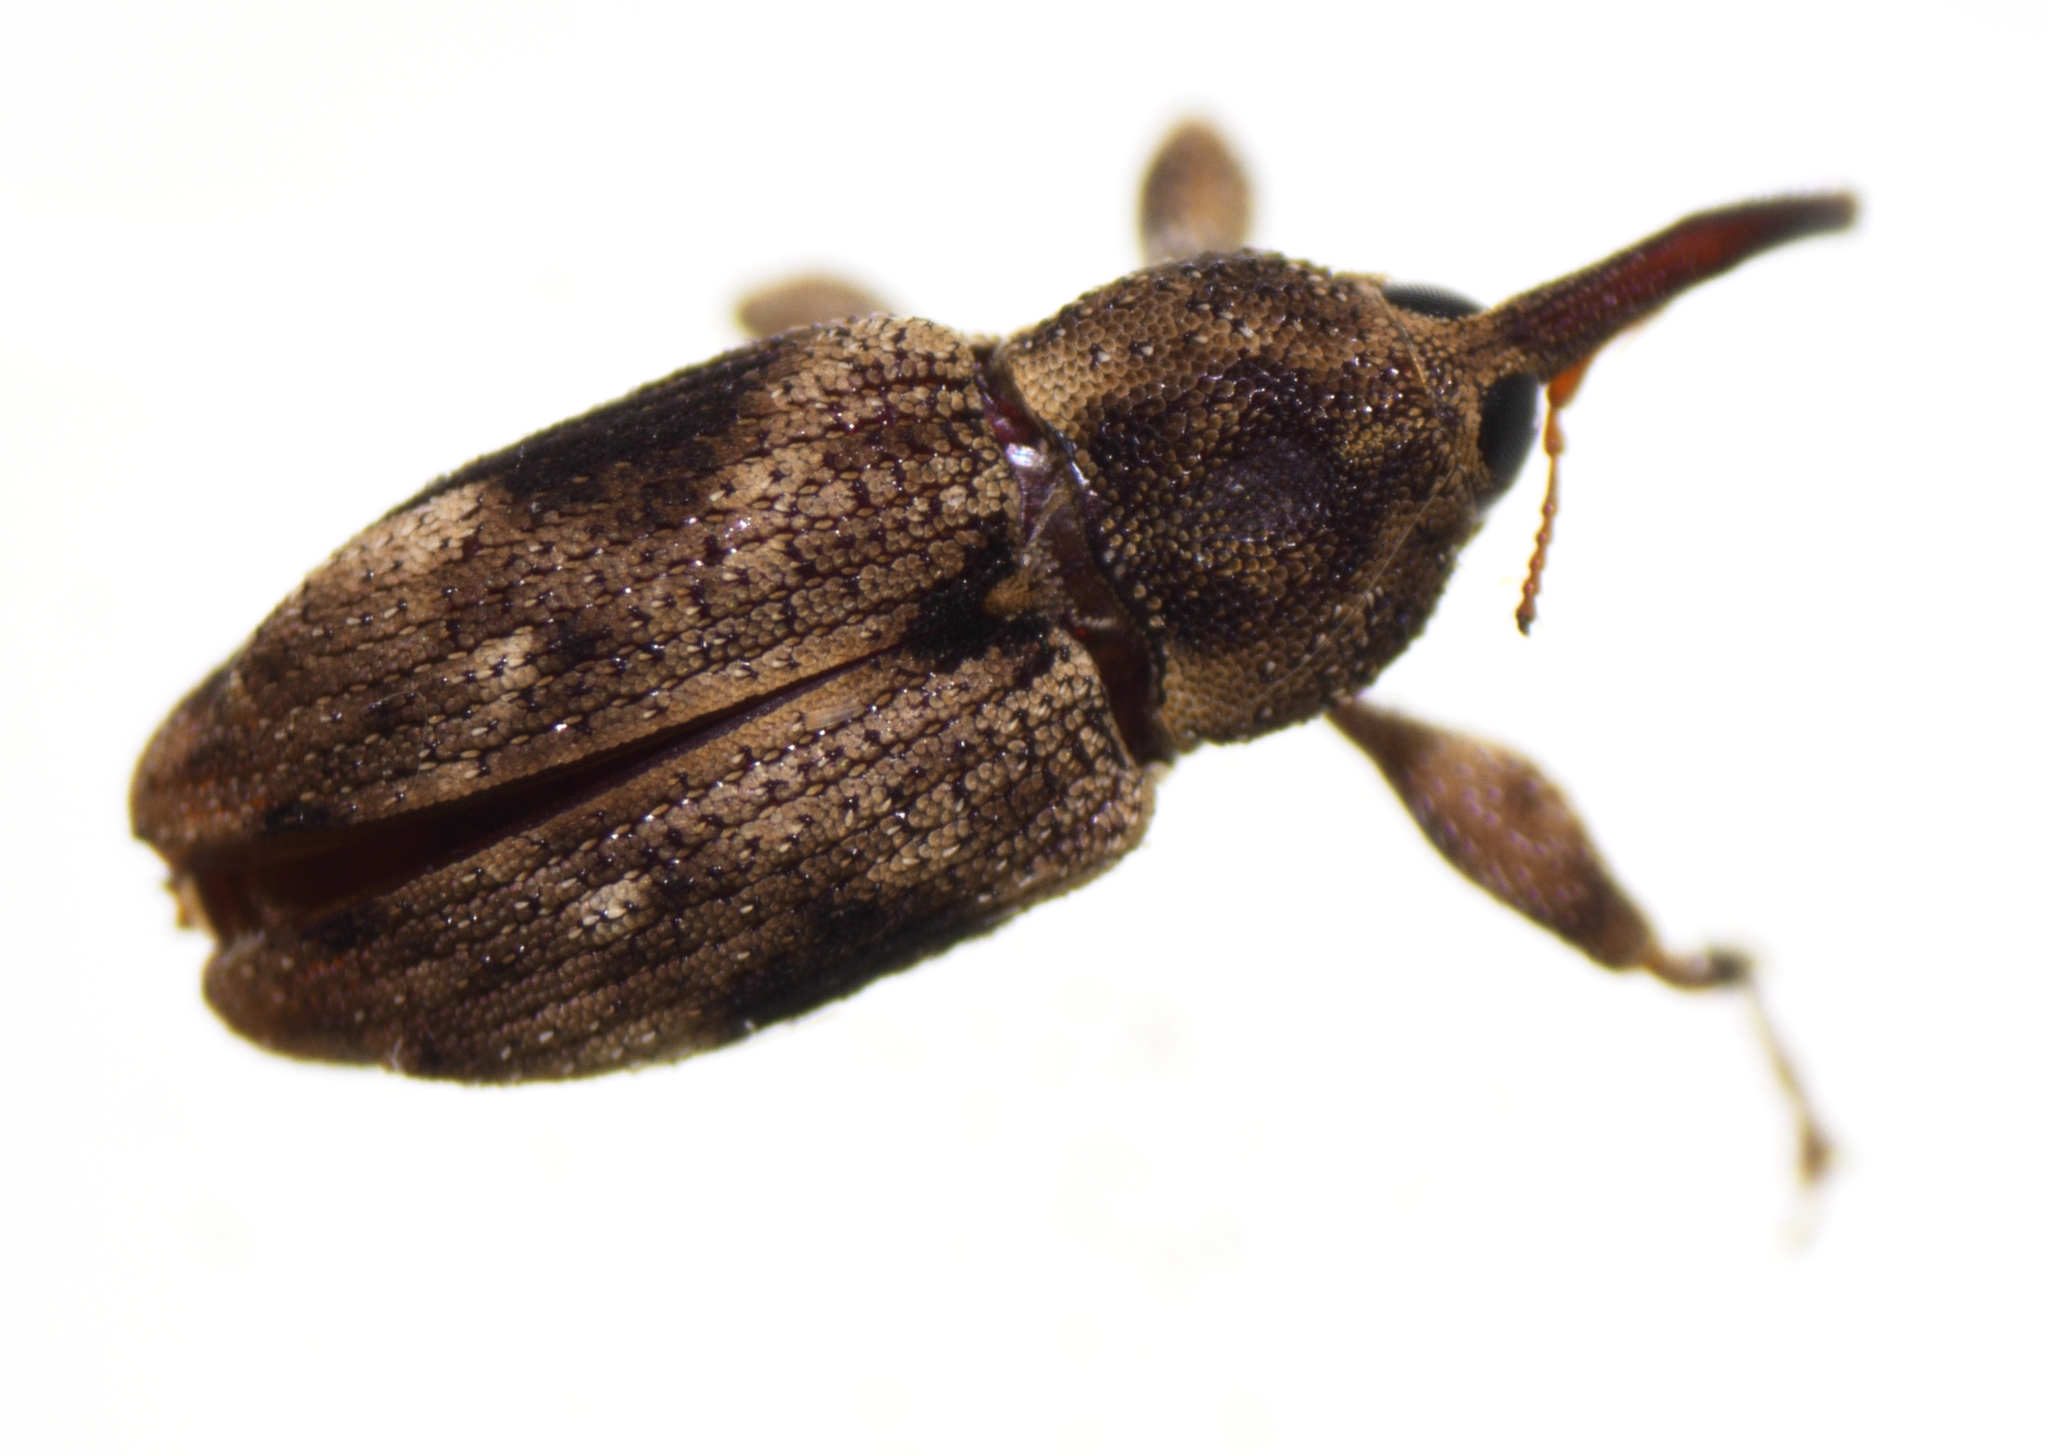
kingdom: Animalia
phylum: Arthropoda
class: Insecta
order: Coleoptera
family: Curculionidae
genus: Acicnemis
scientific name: Acicnemis variegata
